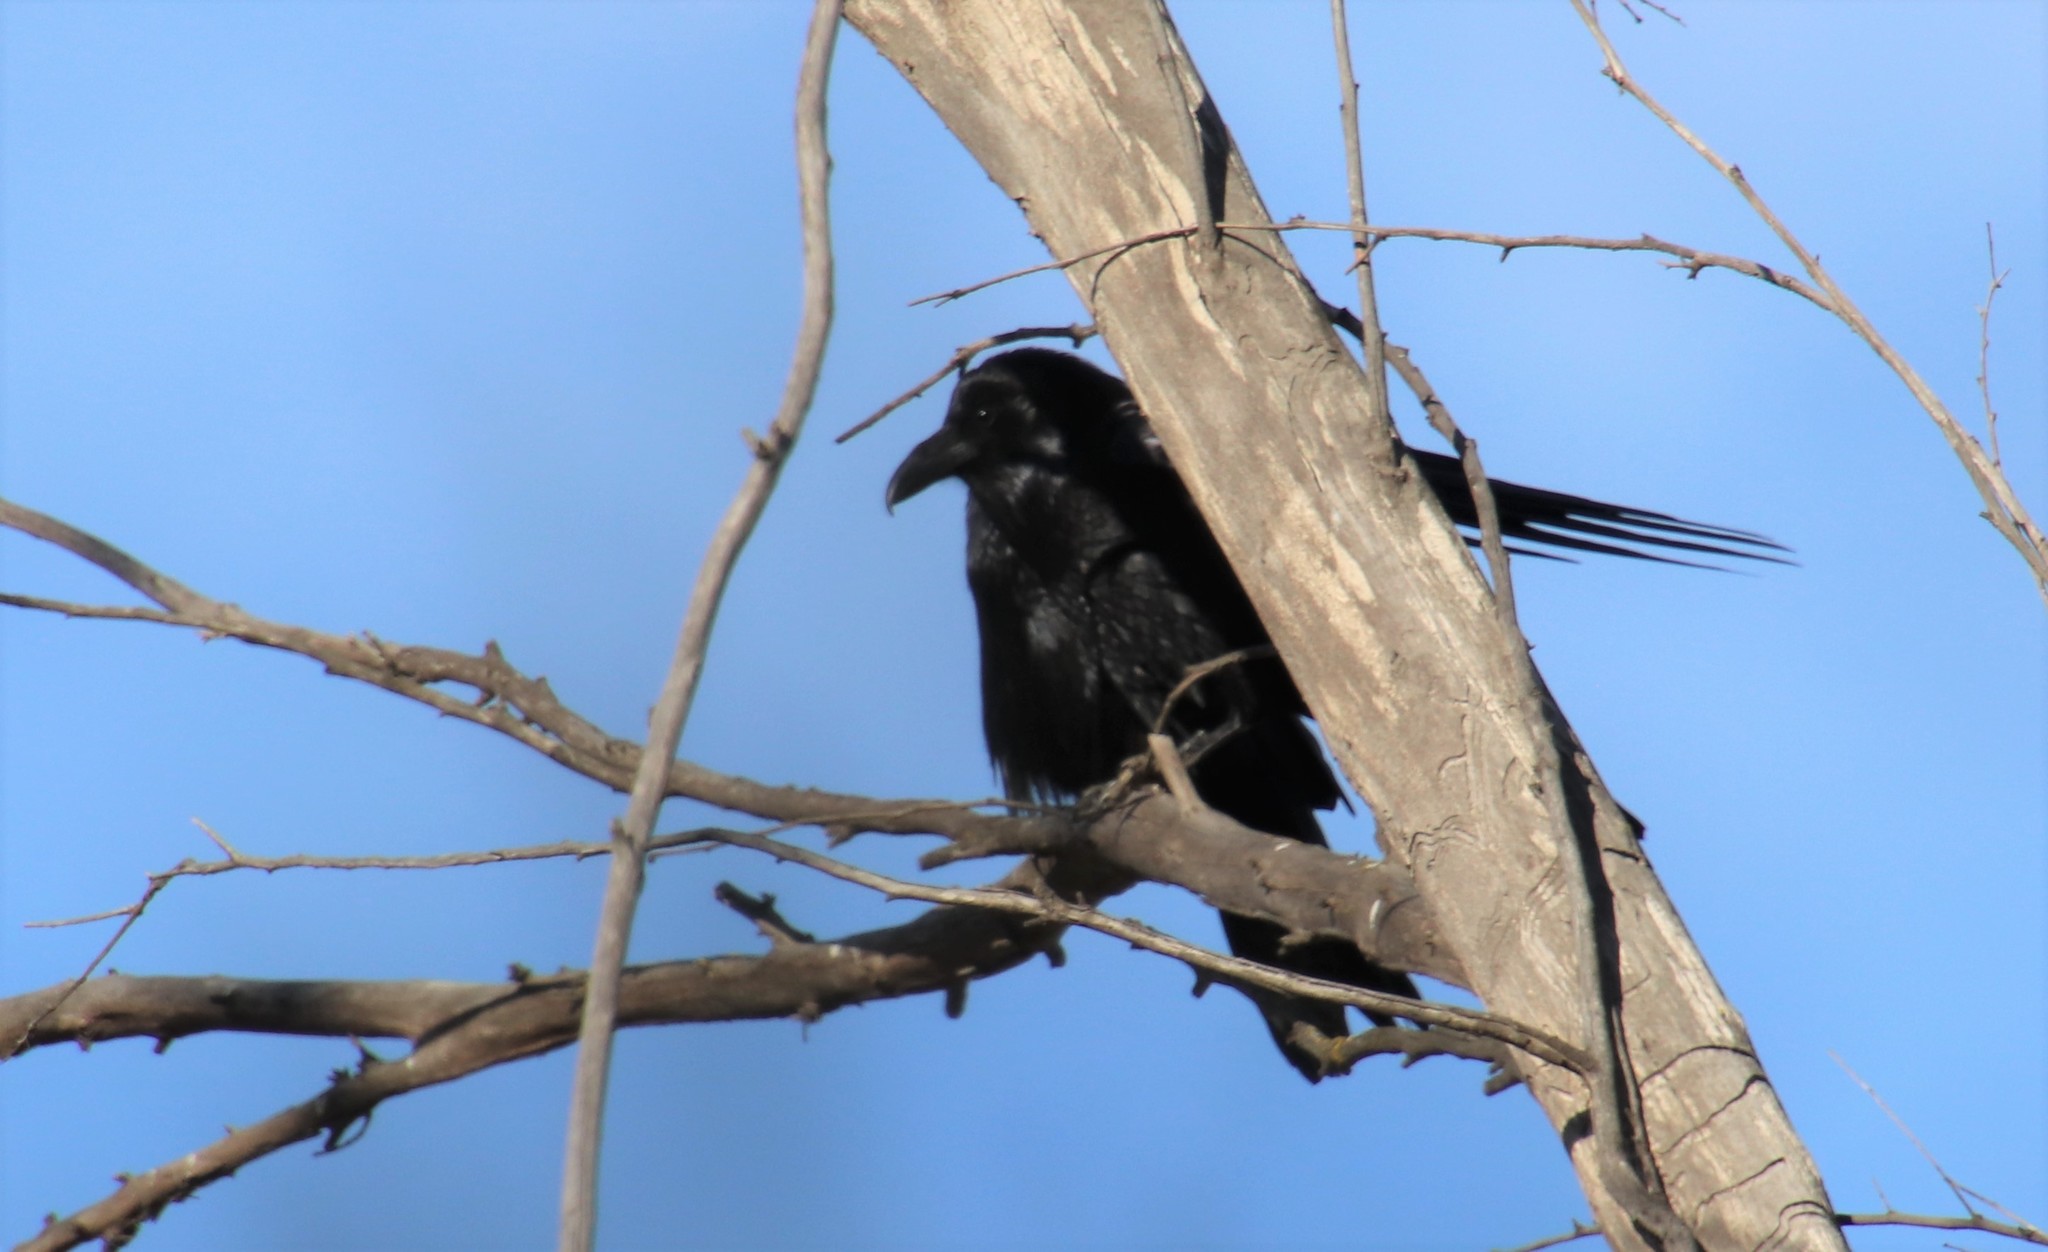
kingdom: Animalia
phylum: Chordata
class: Aves
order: Passeriformes
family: Corvidae
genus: Corvus
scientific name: Corvus corax
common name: Common raven
